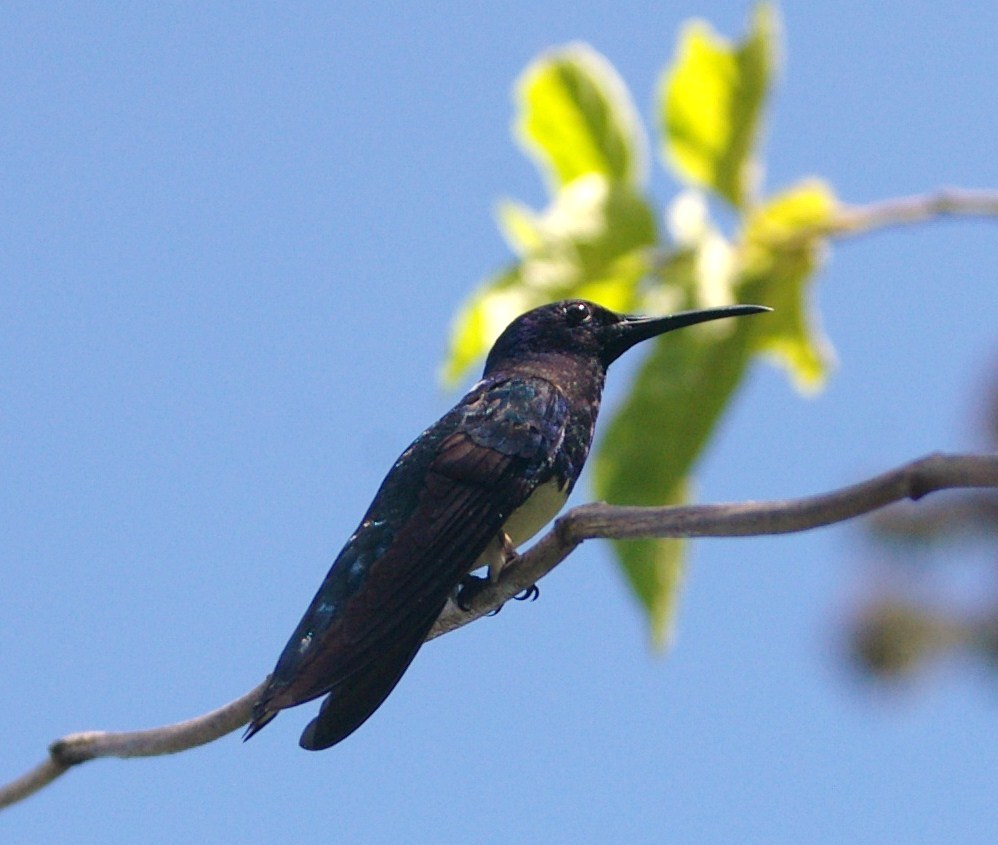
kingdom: Animalia
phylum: Chordata
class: Aves
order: Apodiformes
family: Trochilidae
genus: Florisuga
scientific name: Florisuga mellivora
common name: White-necked jacobin
